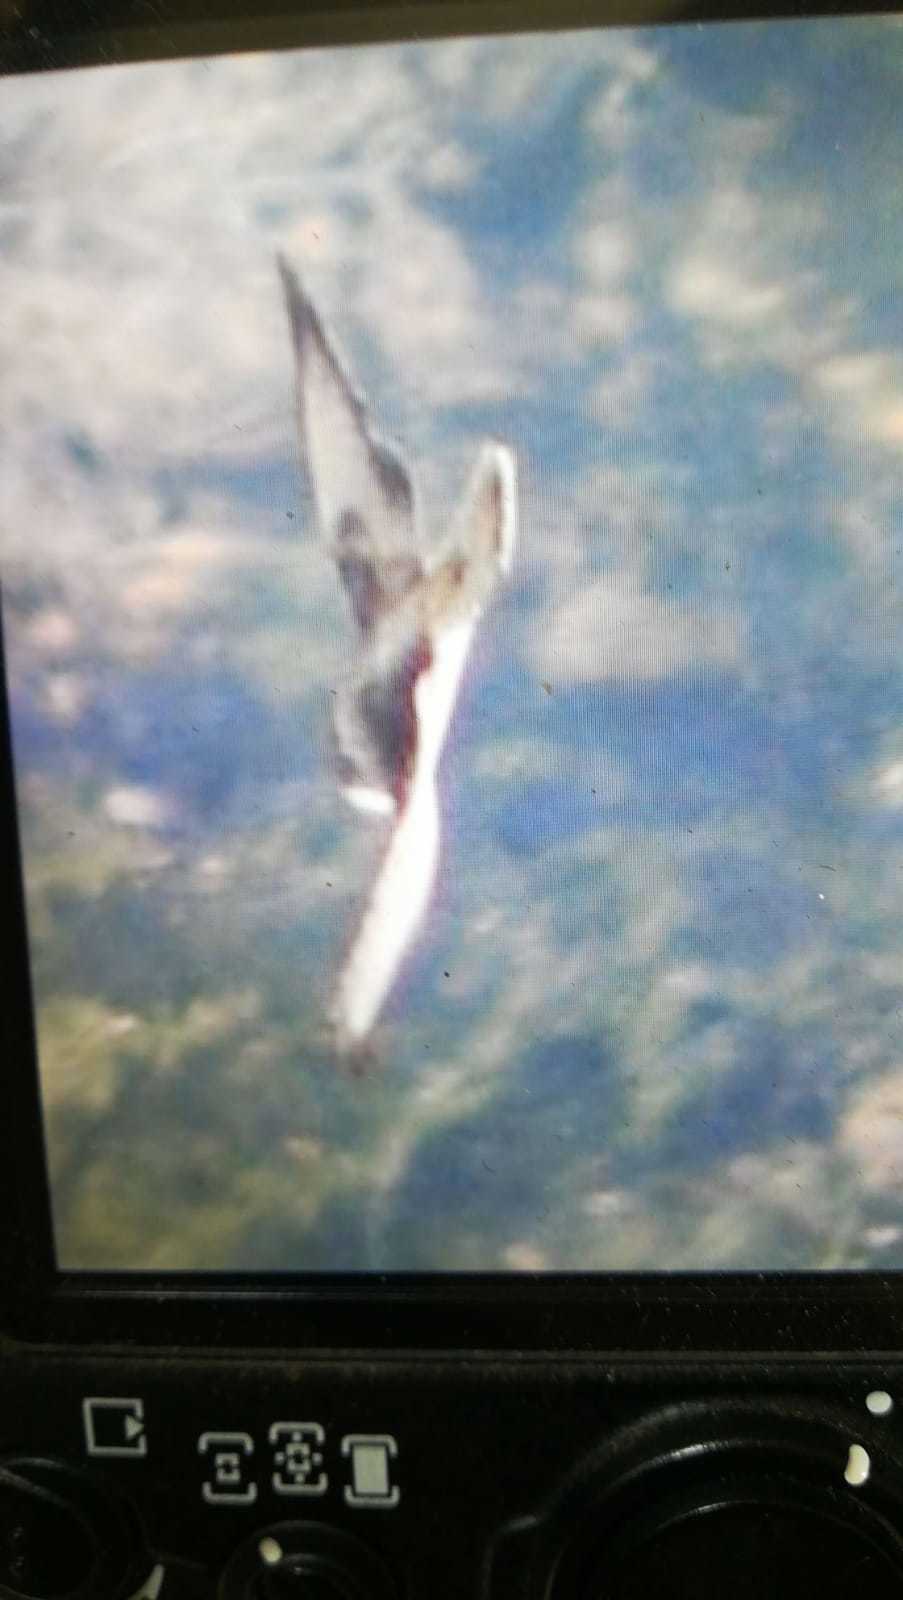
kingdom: Animalia
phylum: Chordata
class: Aves
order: Accipitriformes
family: Accipitridae
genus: Buteo
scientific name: Buteo buteo
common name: Common buzzard
